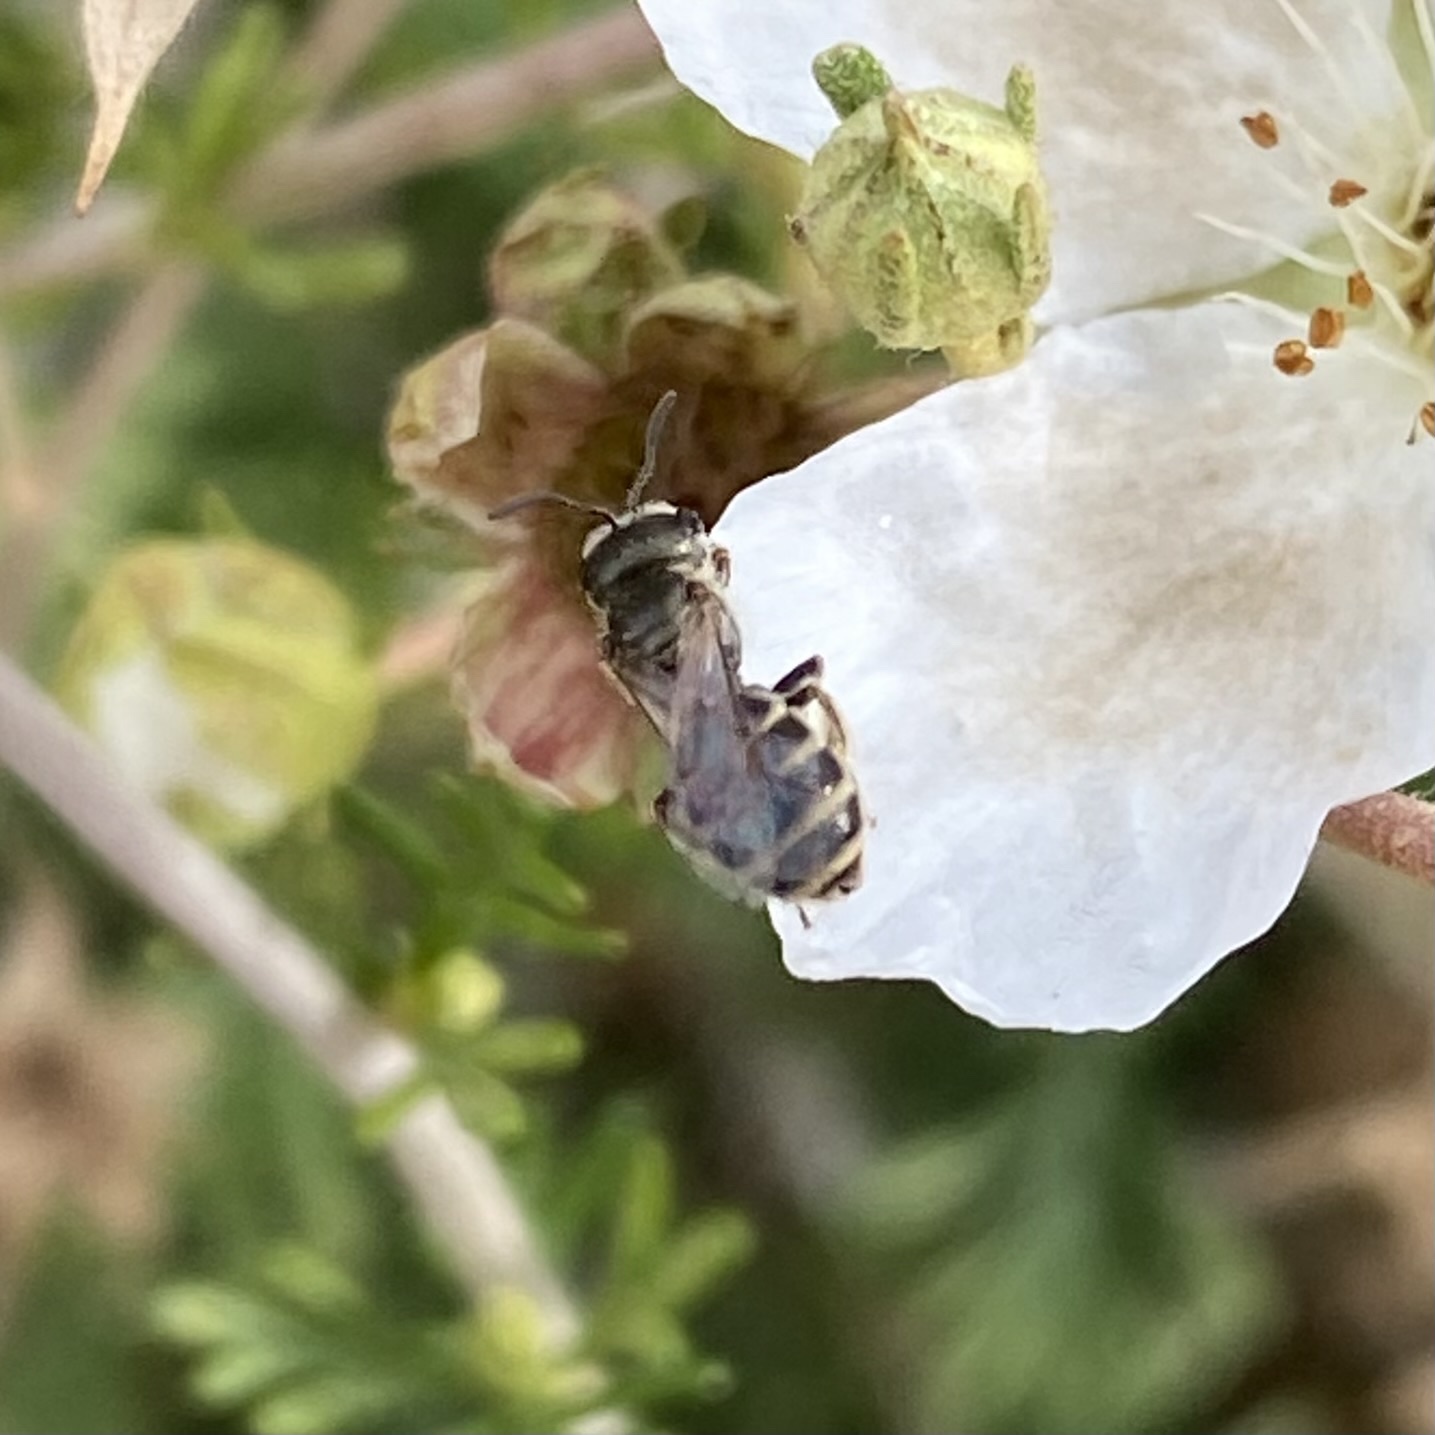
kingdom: Animalia
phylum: Arthropoda
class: Insecta
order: Hymenoptera
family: Halictidae
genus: Halictus
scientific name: Halictus tripartitus
